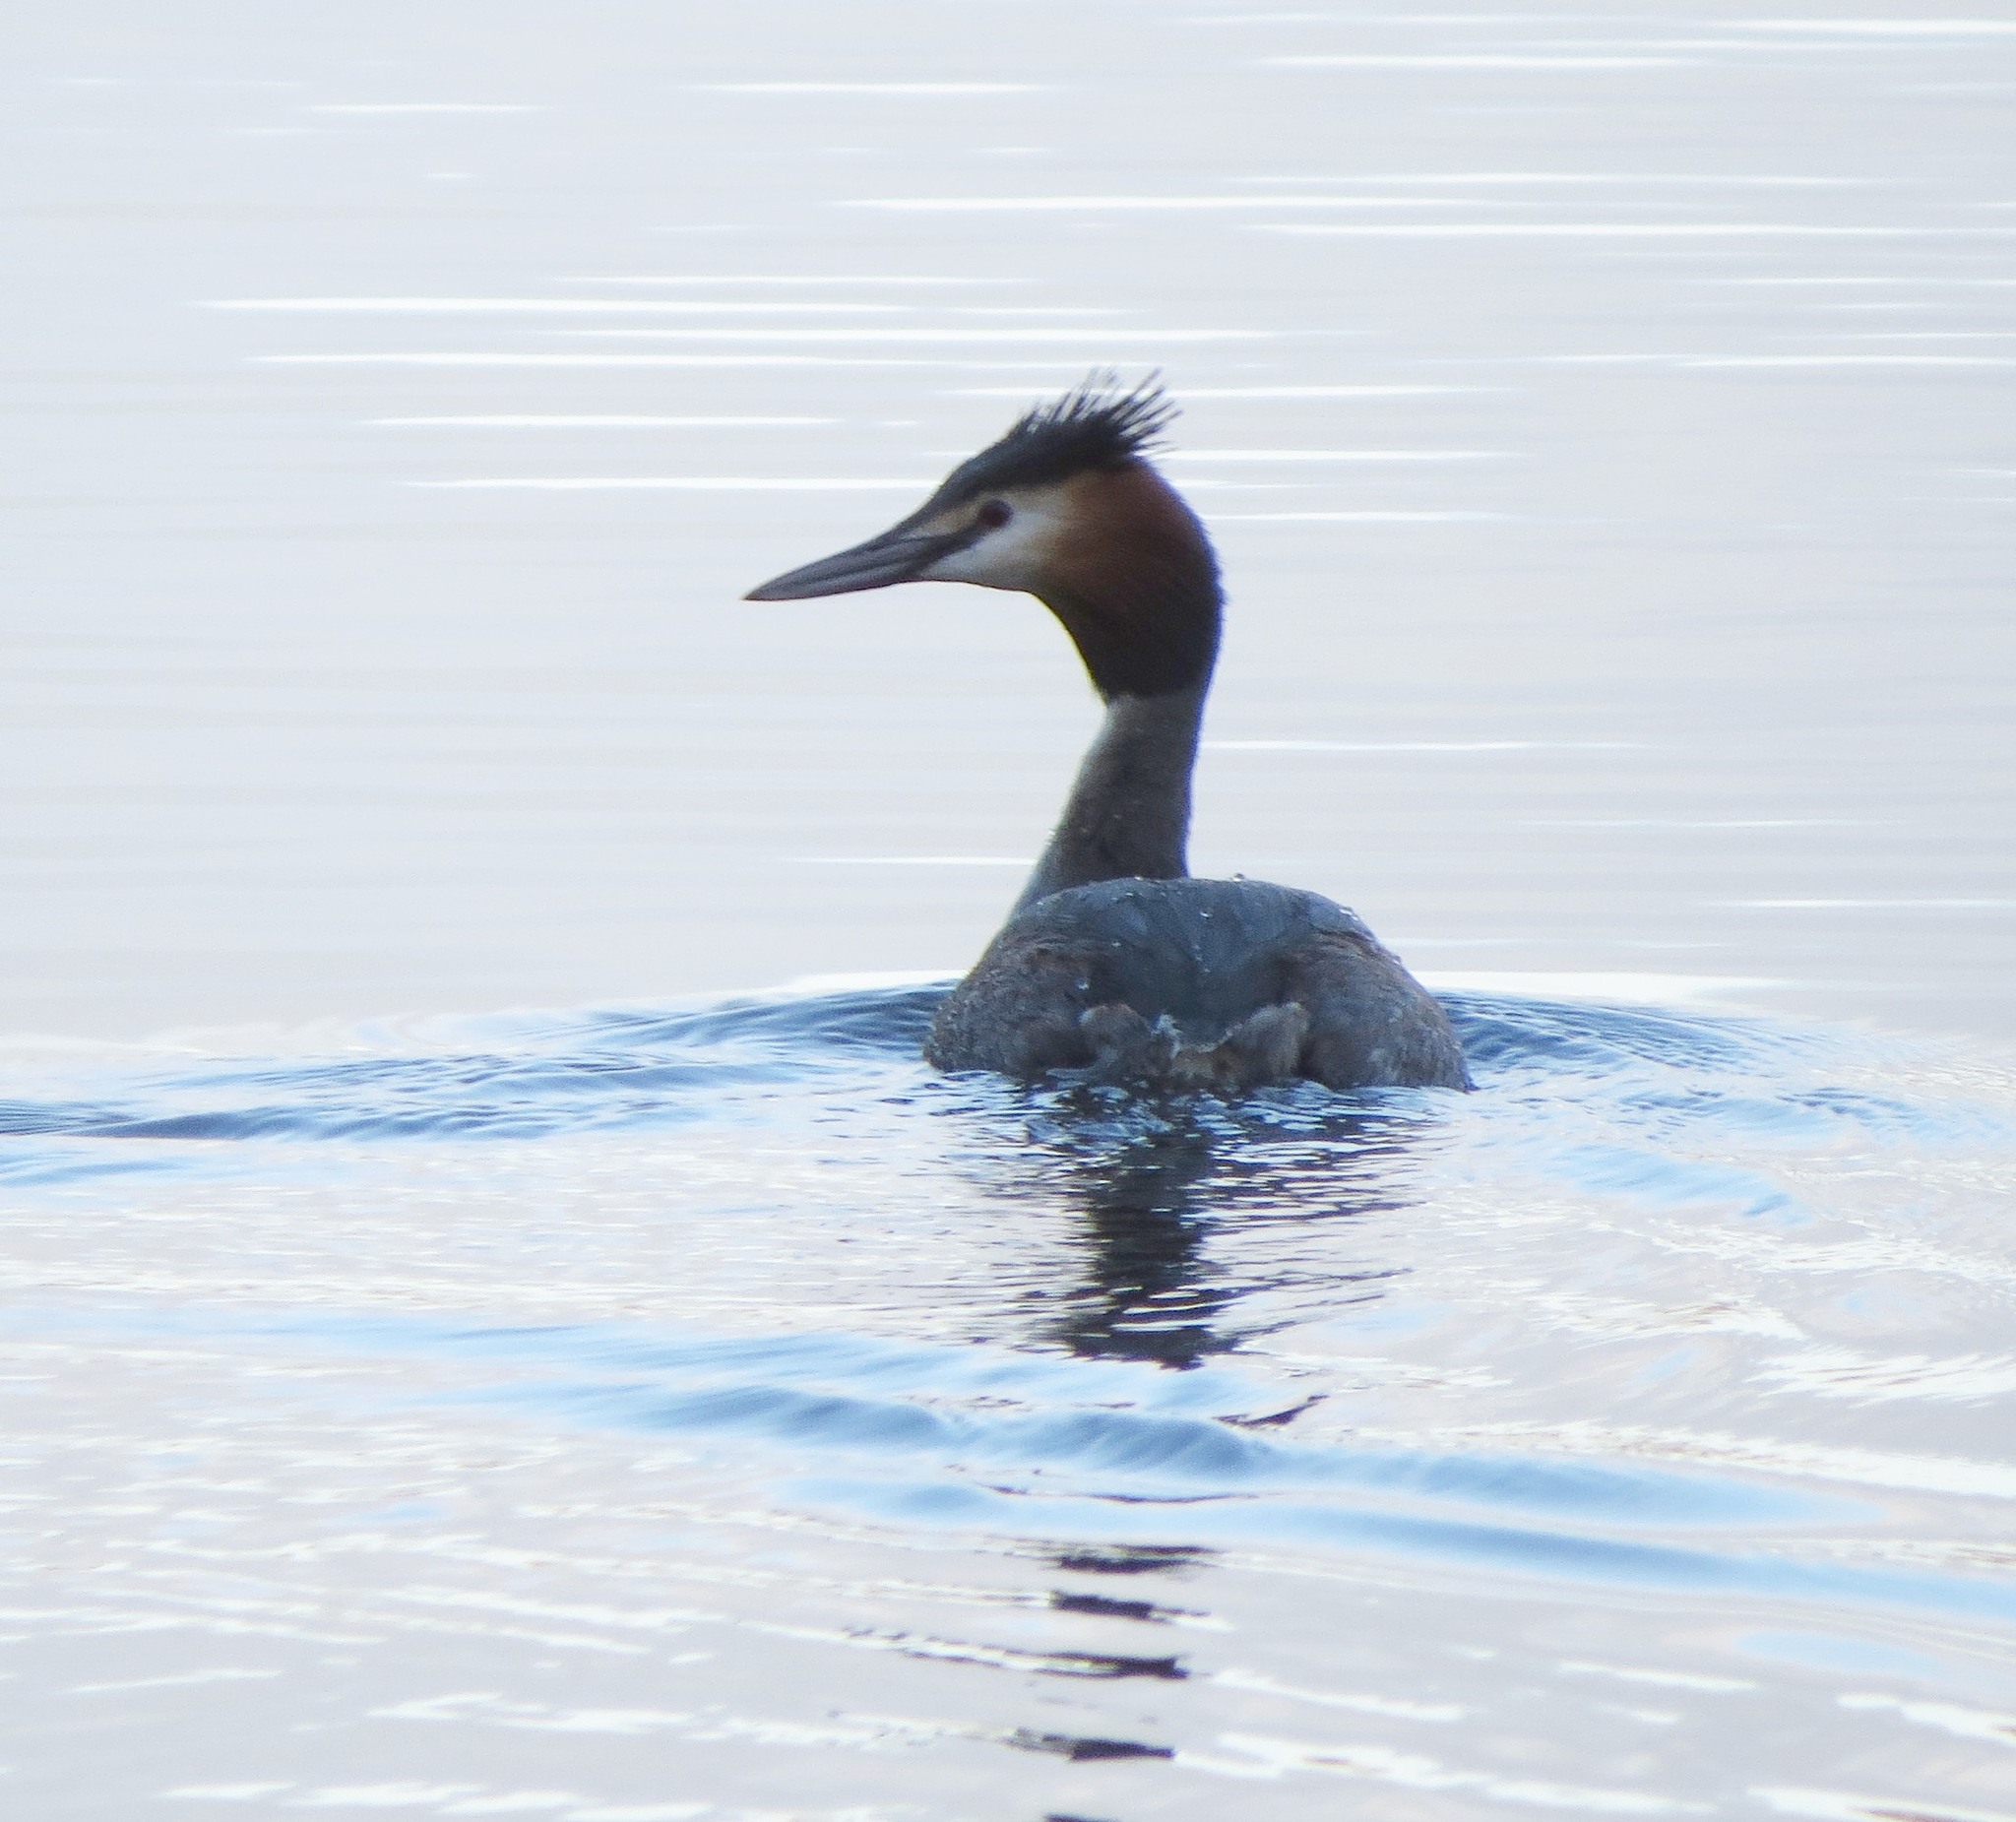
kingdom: Animalia
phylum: Chordata
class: Aves
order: Podicipediformes
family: Podicipedidae
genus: Podiceps
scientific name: Podiceps cristatus
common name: Great crested grebe
